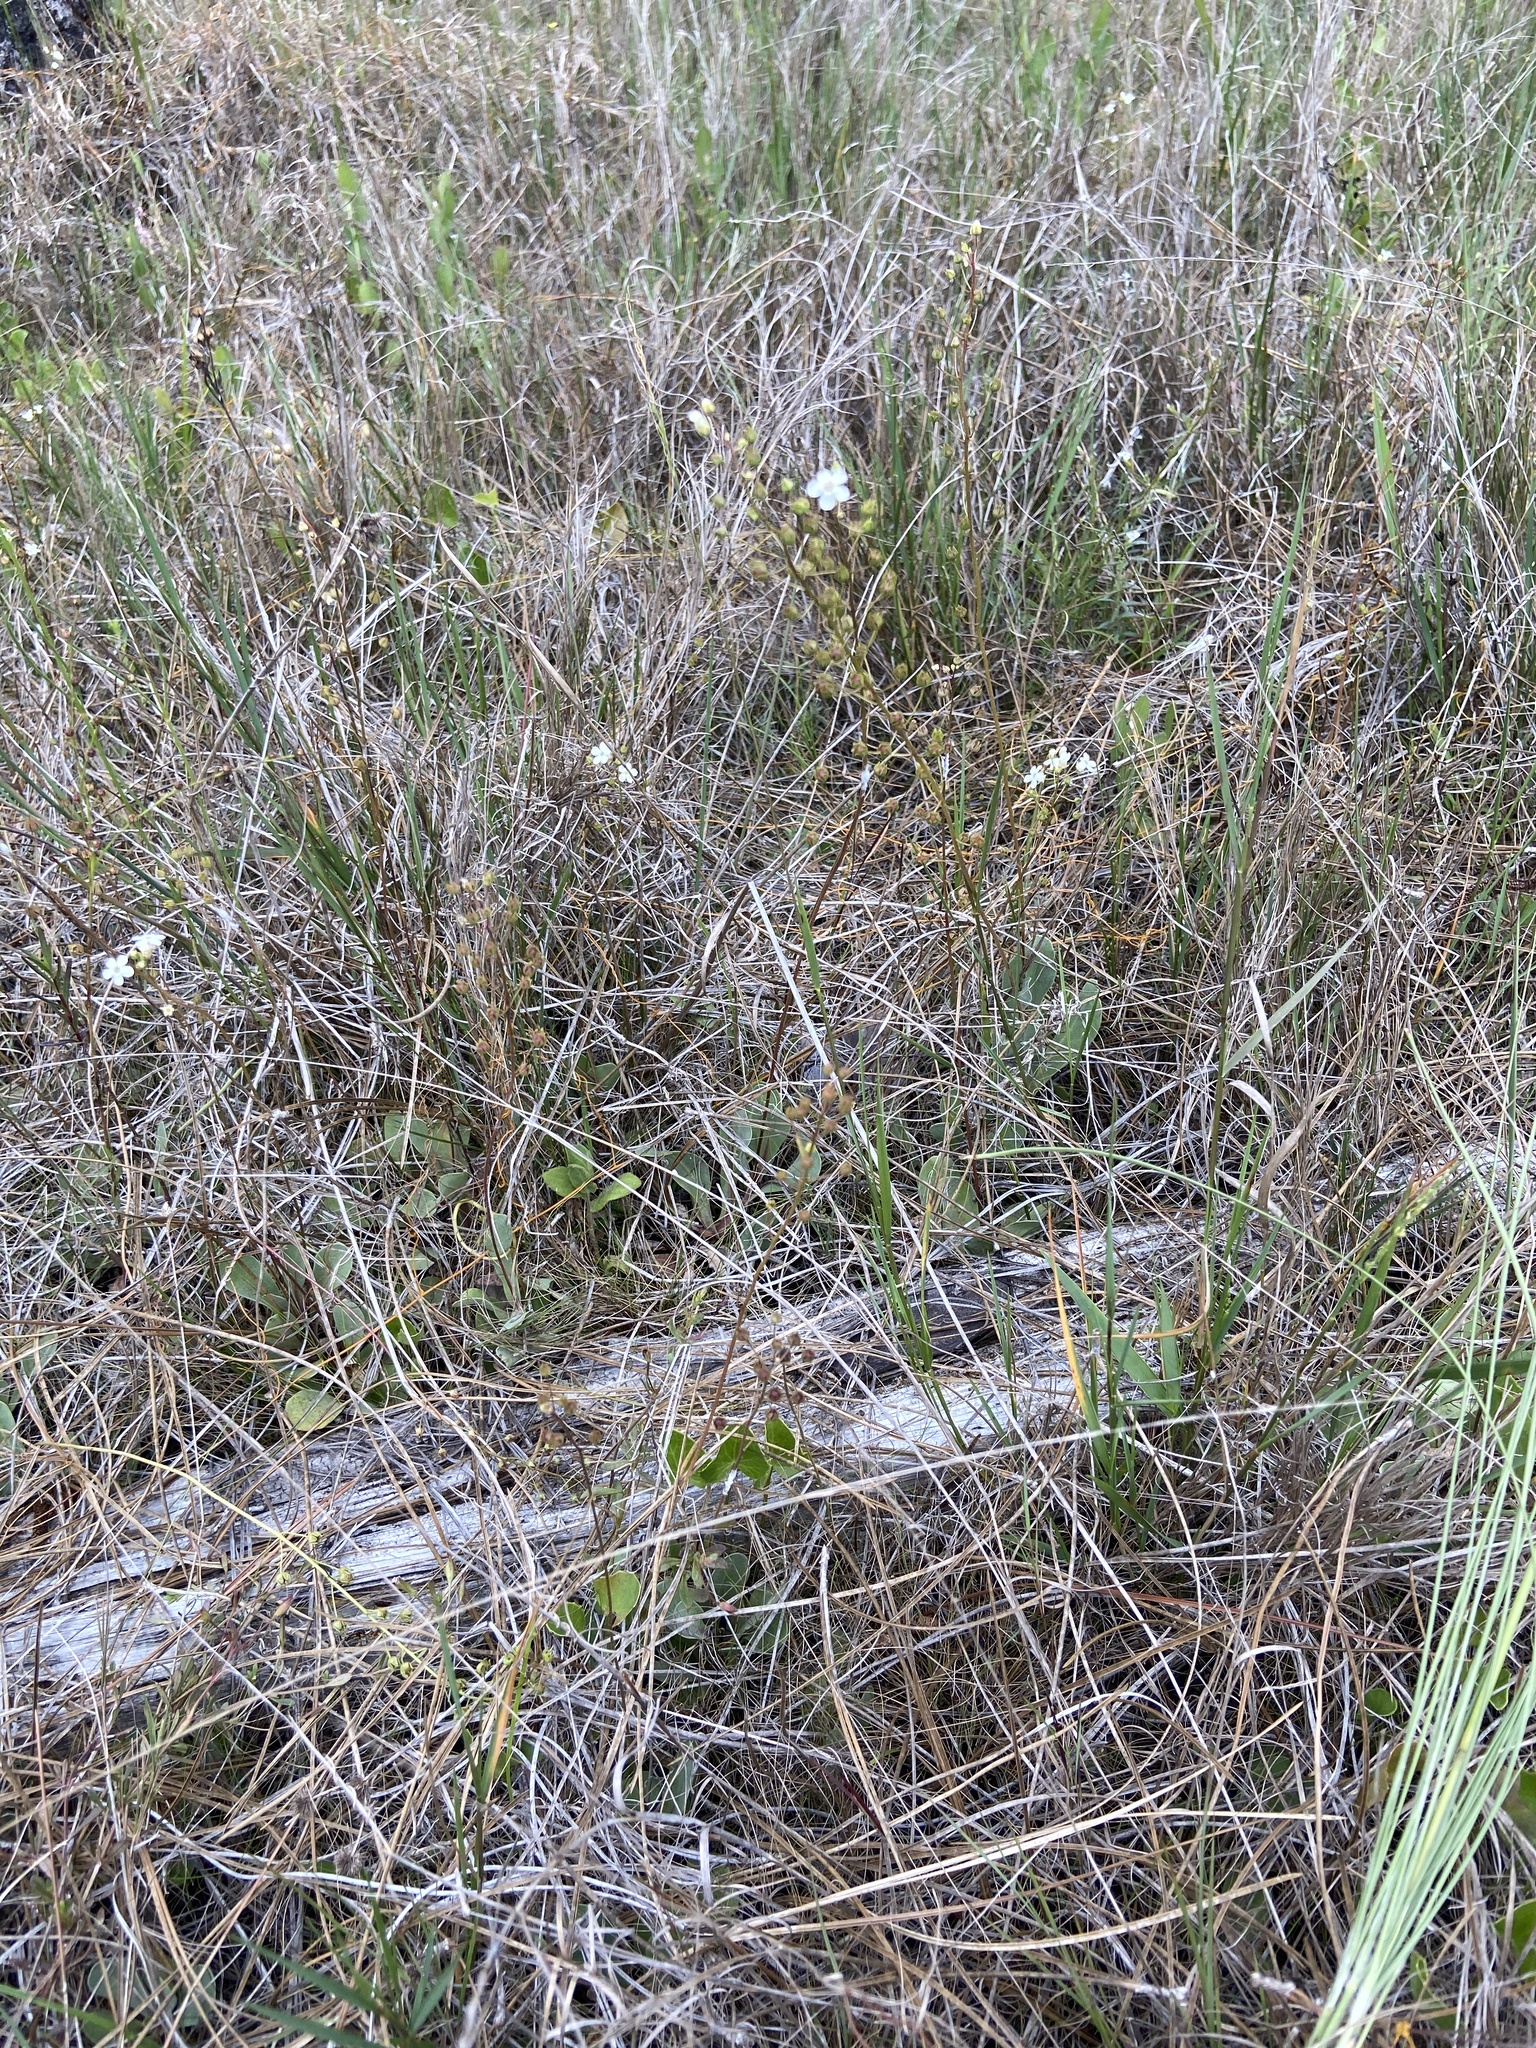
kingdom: Plantae
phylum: Tracheophyta
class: Magnoliopsida
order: Ericales
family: Primulaceae
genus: Samolus
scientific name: Samolus ebracteatus
